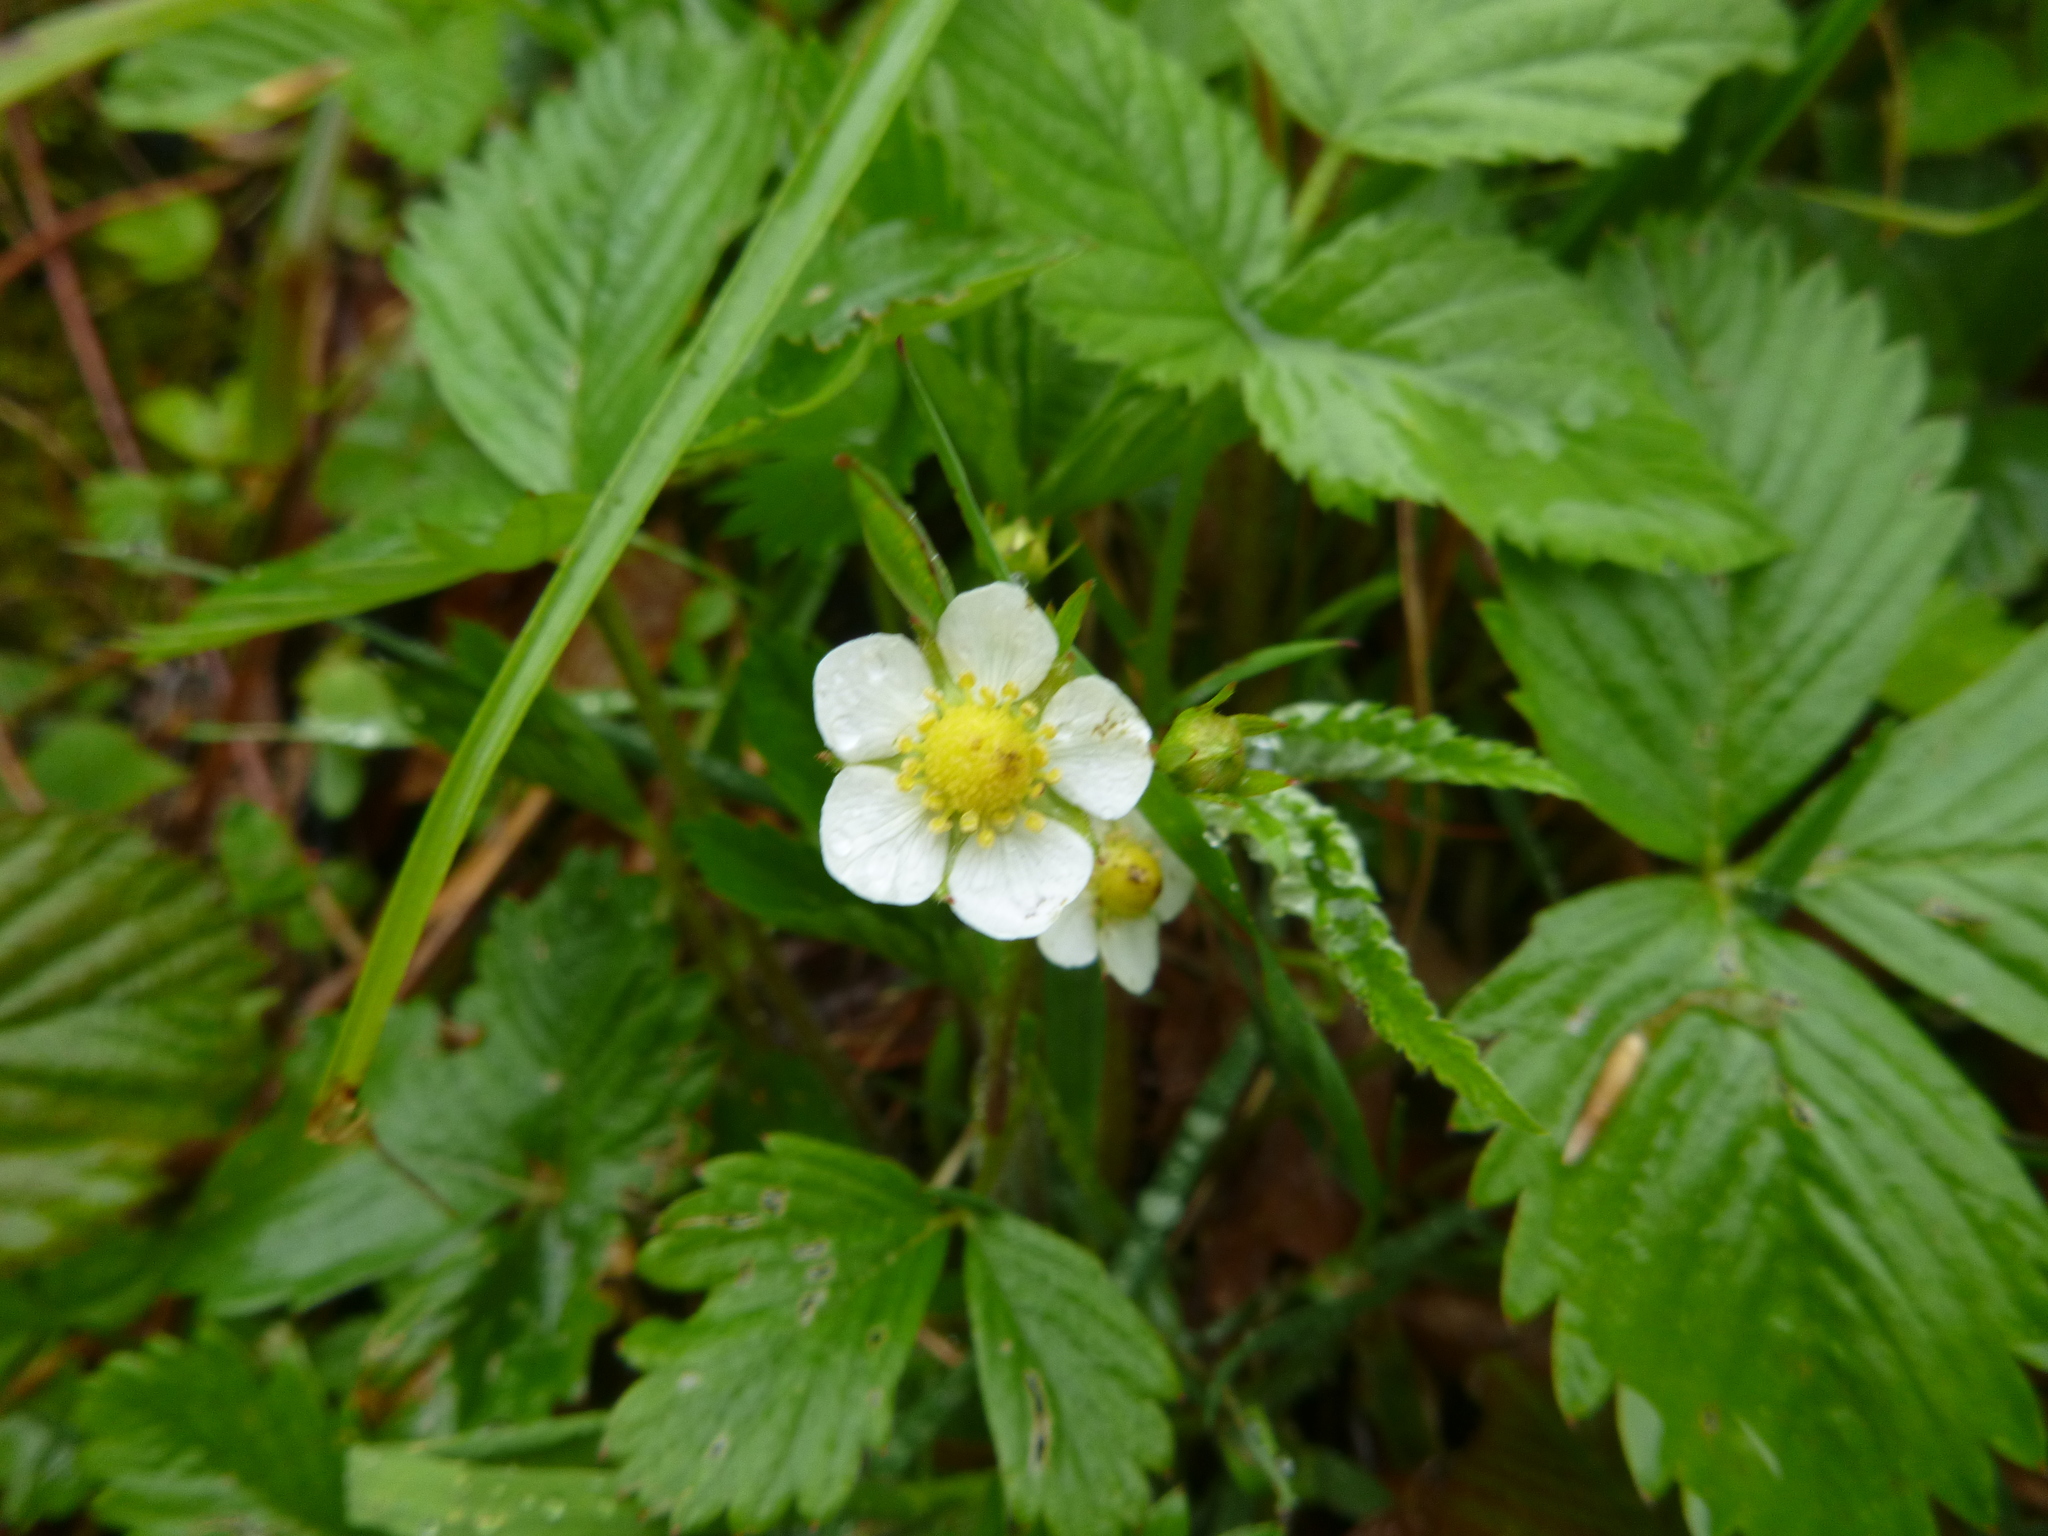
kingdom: Plantae
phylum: Tracheophyta
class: Magnoliopsida
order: Rosales
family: Rosaceae
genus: Fragaria
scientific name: Fragaria vesca
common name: Wild strawberry
